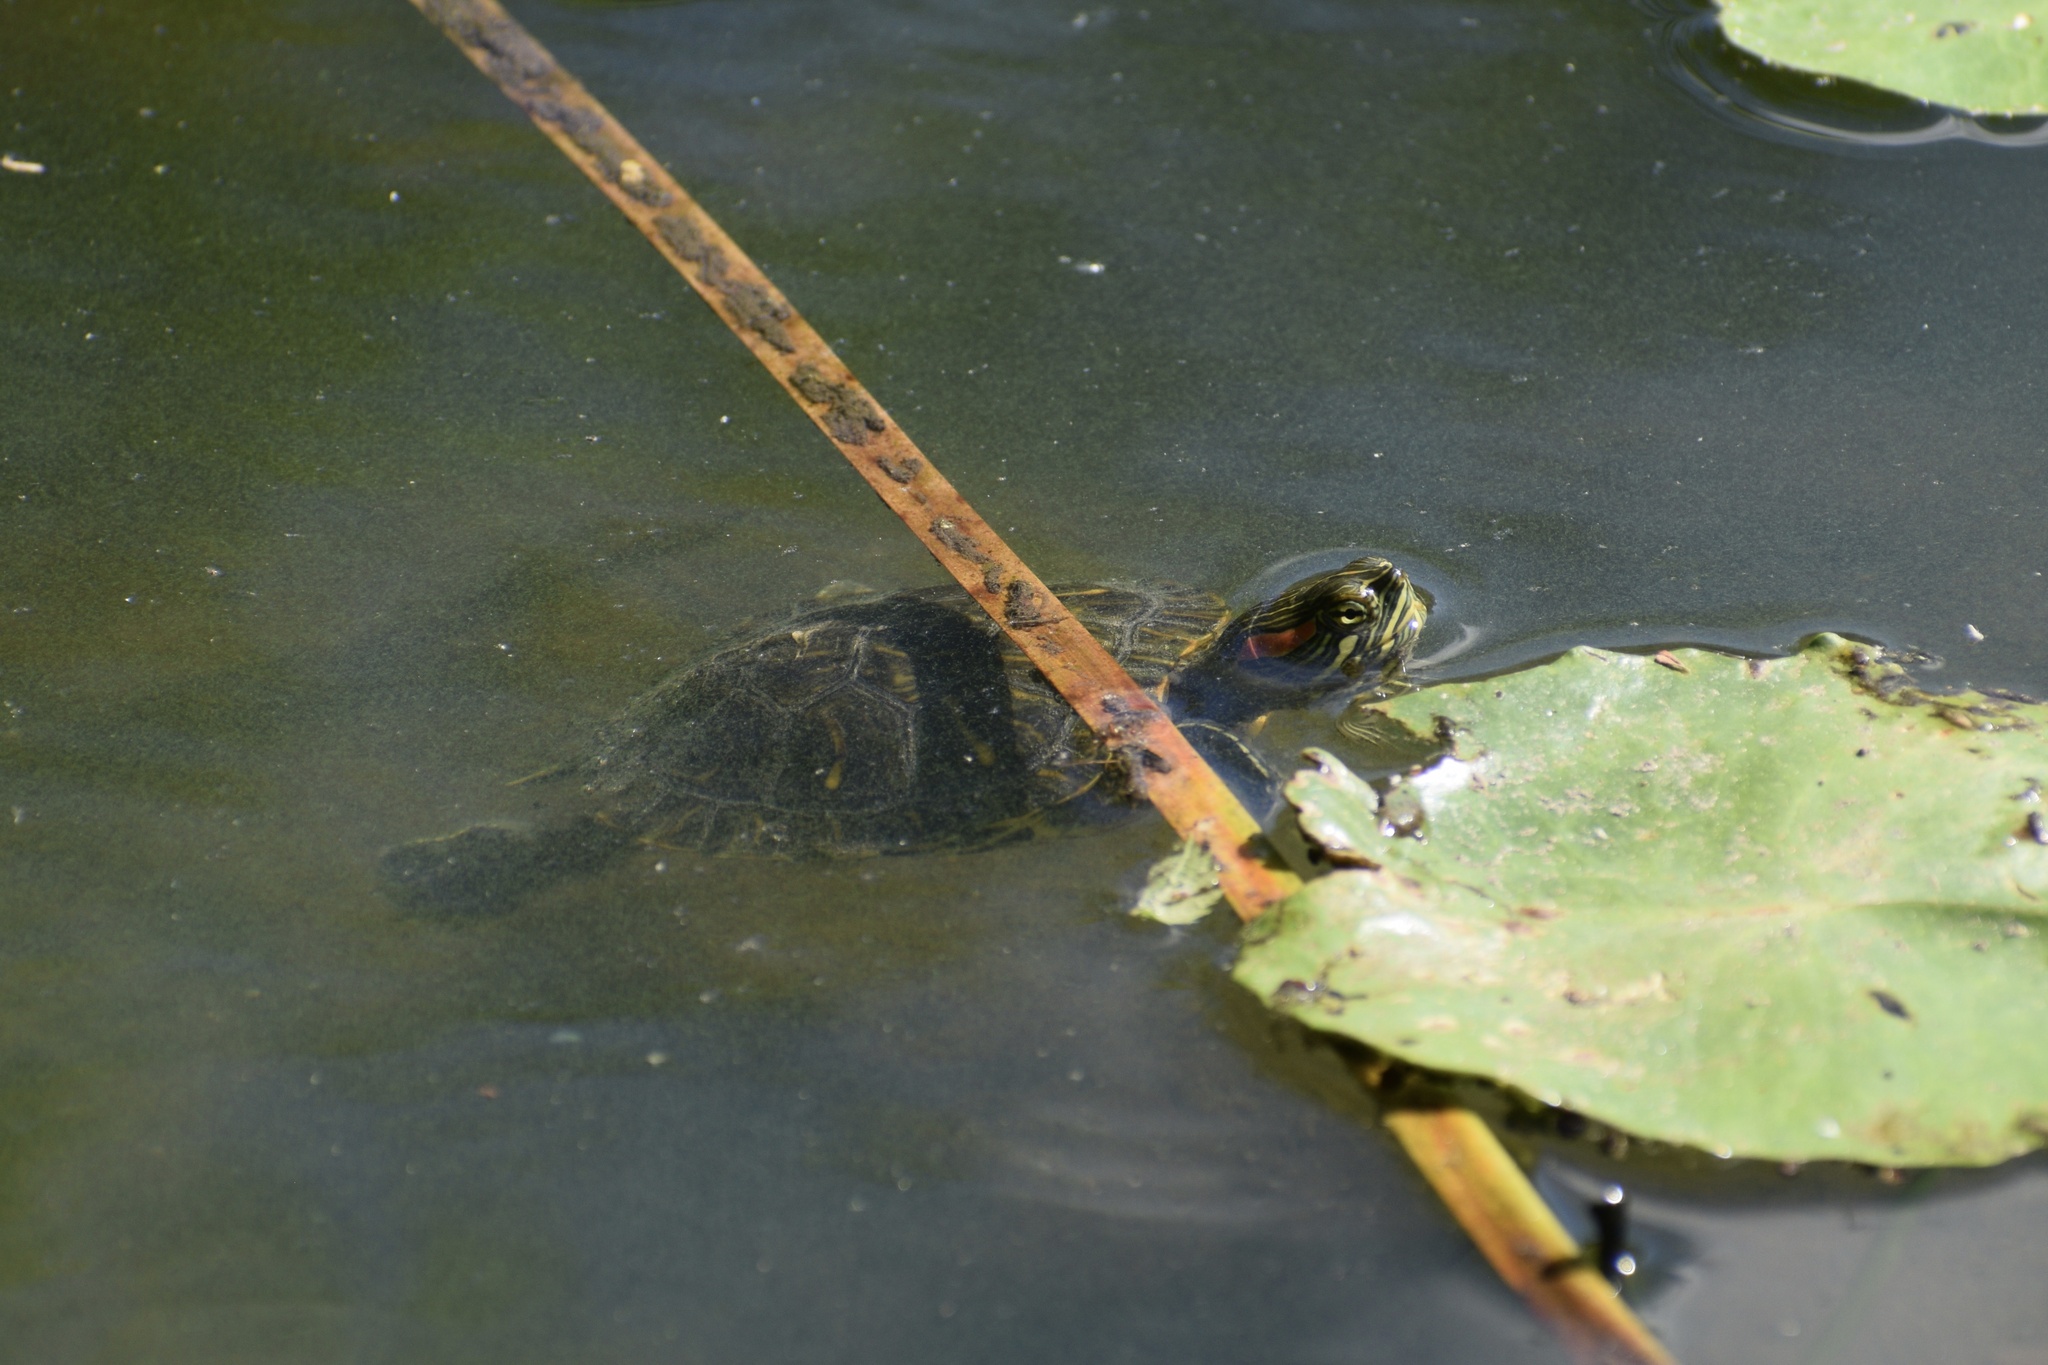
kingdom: Animalia
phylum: Chordata
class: Testudines
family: Emydidae
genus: Trachemys
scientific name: Trachemys scripta
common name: Slider
